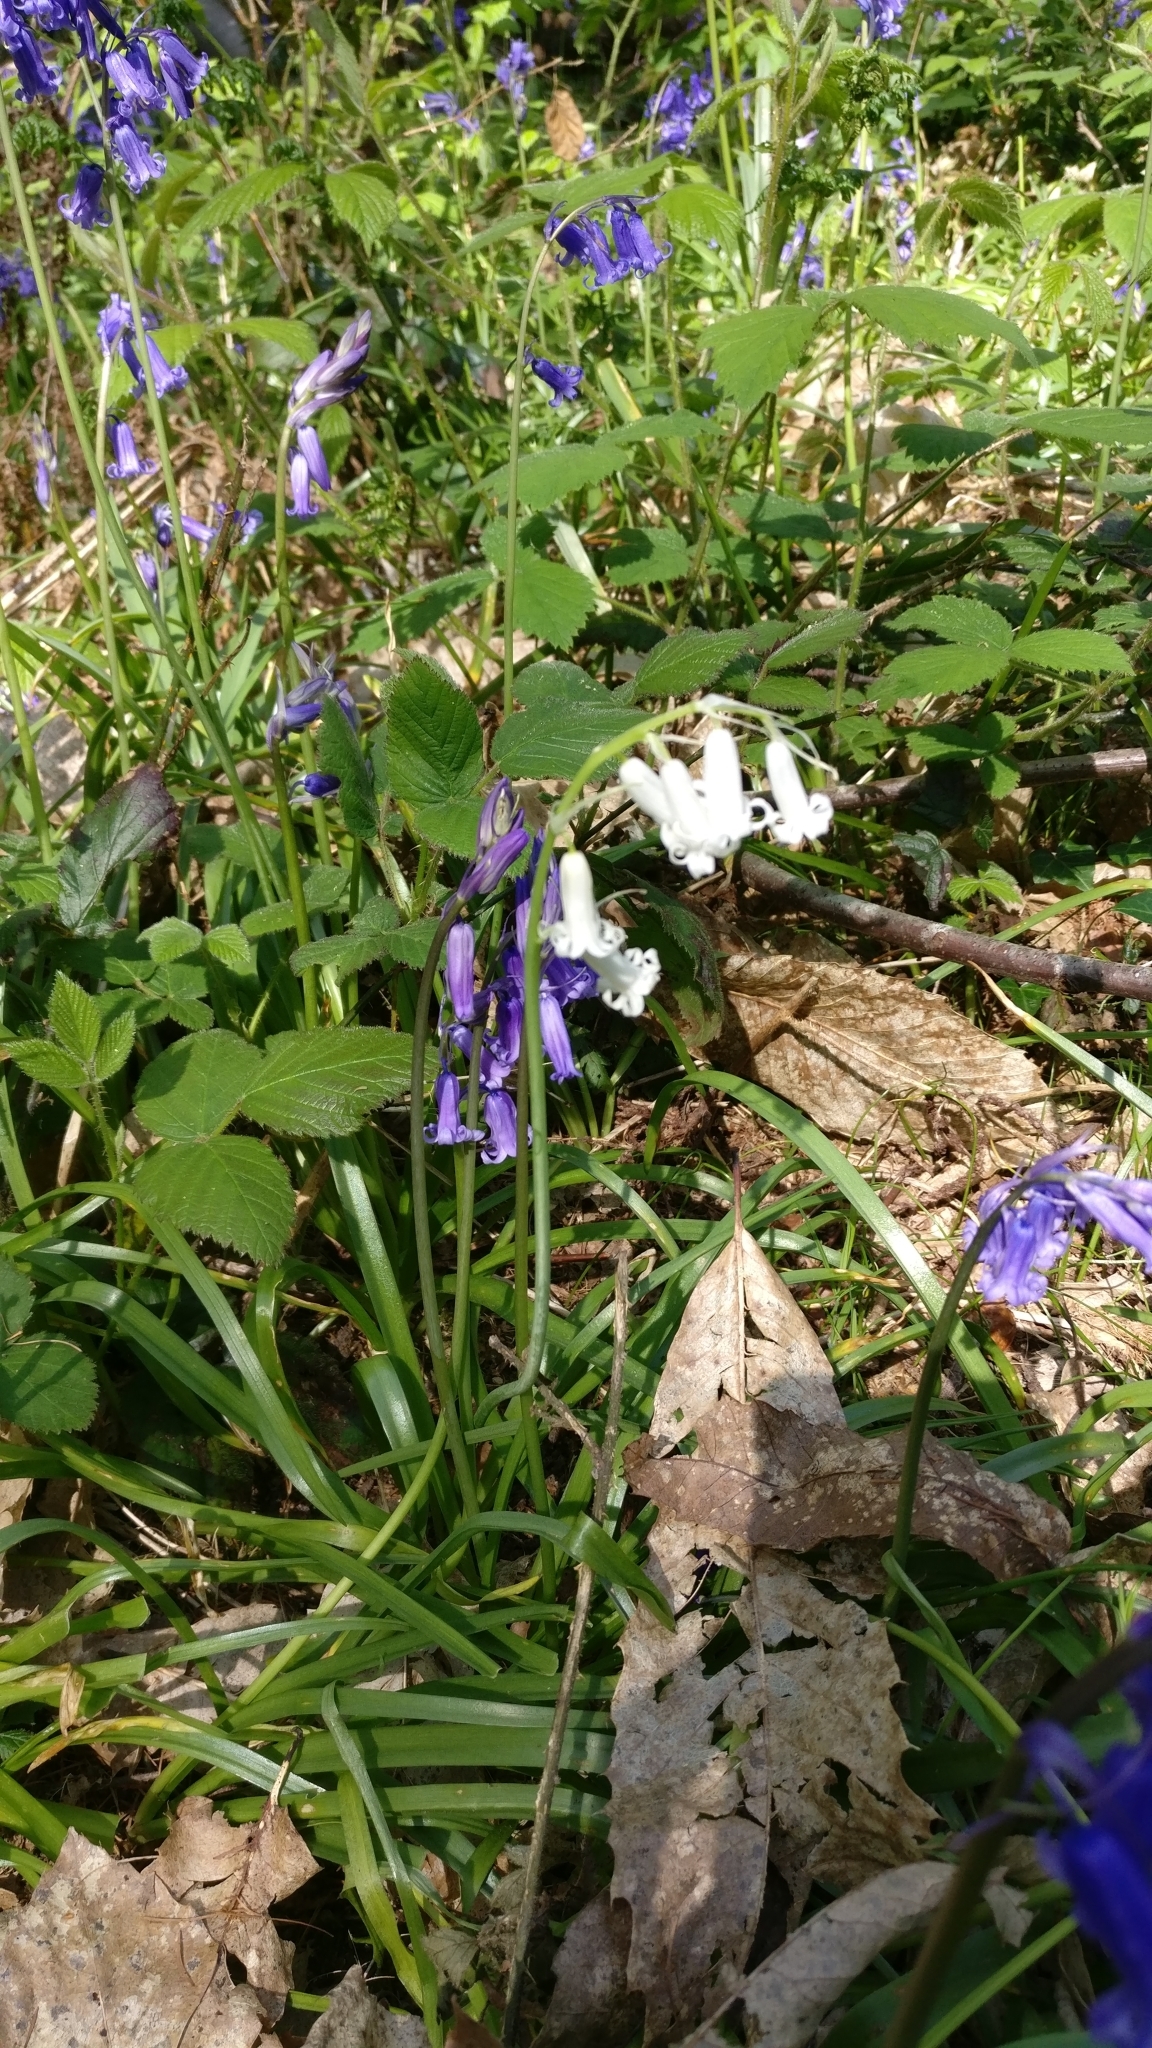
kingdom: Plantae
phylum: Tracheophyta
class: Liliopsida
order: Asparagales
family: Asparagaceae
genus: Hyacinthoides
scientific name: Hyacinthoides non-scripta
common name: Bluebell
